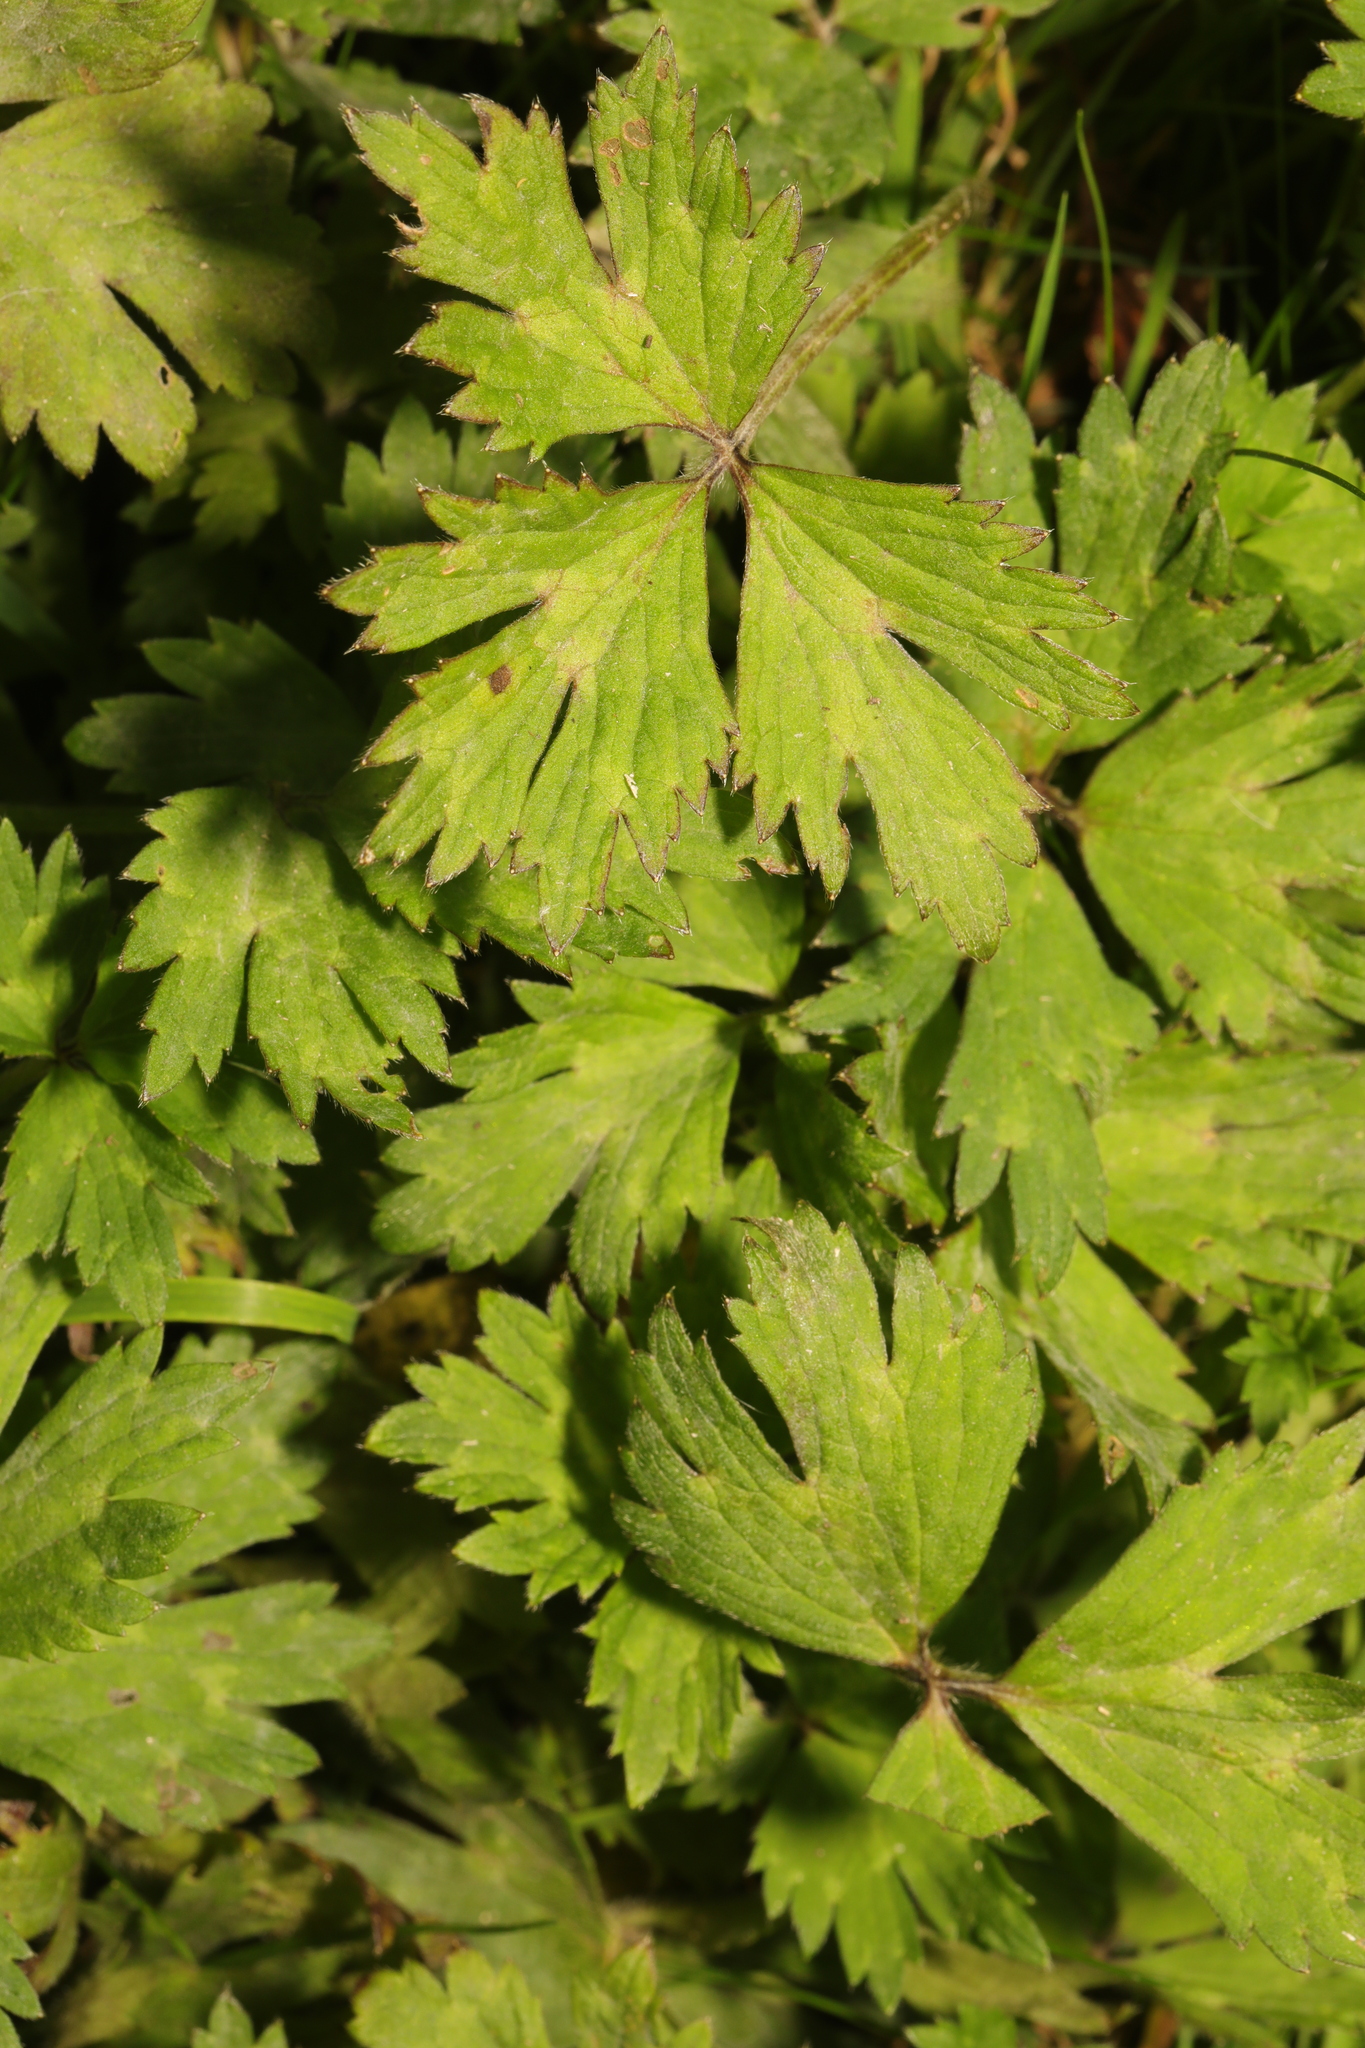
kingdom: Plantae
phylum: Tracheophyta
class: Magnoliopsida
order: Ranunculales
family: Ranunculaceae
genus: Ranunculus
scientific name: Ranunculus repens
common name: Creeping buttercup
